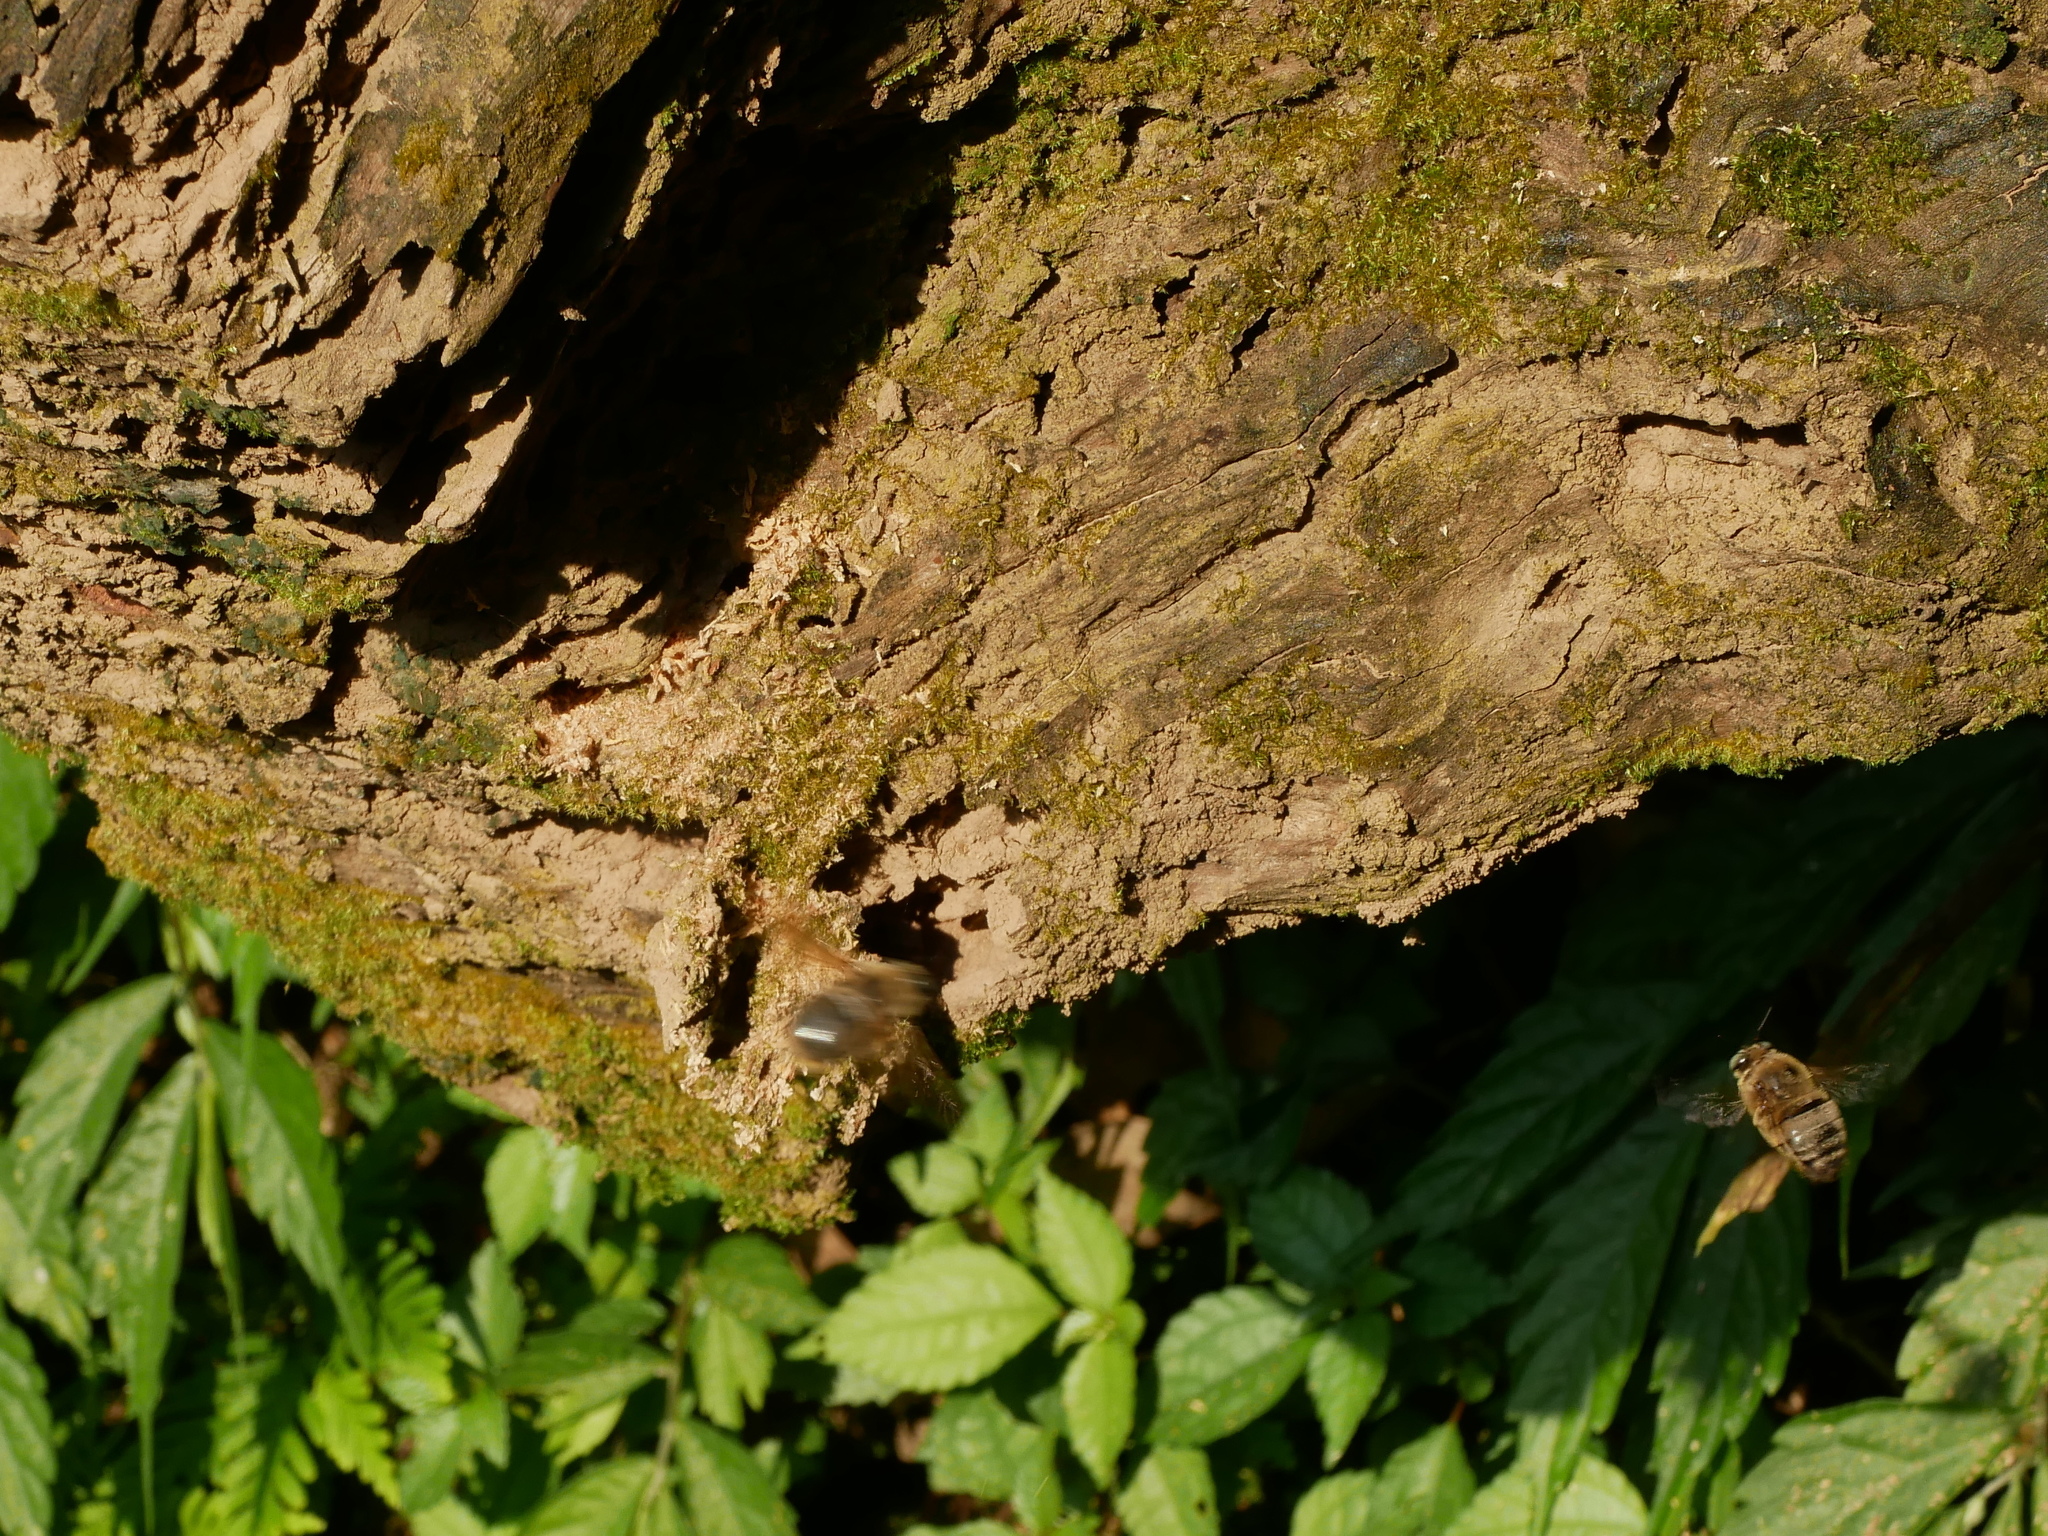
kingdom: Animalia
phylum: Arthropoda
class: Insecta
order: Hymenoptera
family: Apidae
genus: Xylocopa
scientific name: Xylocopa dejeanii
